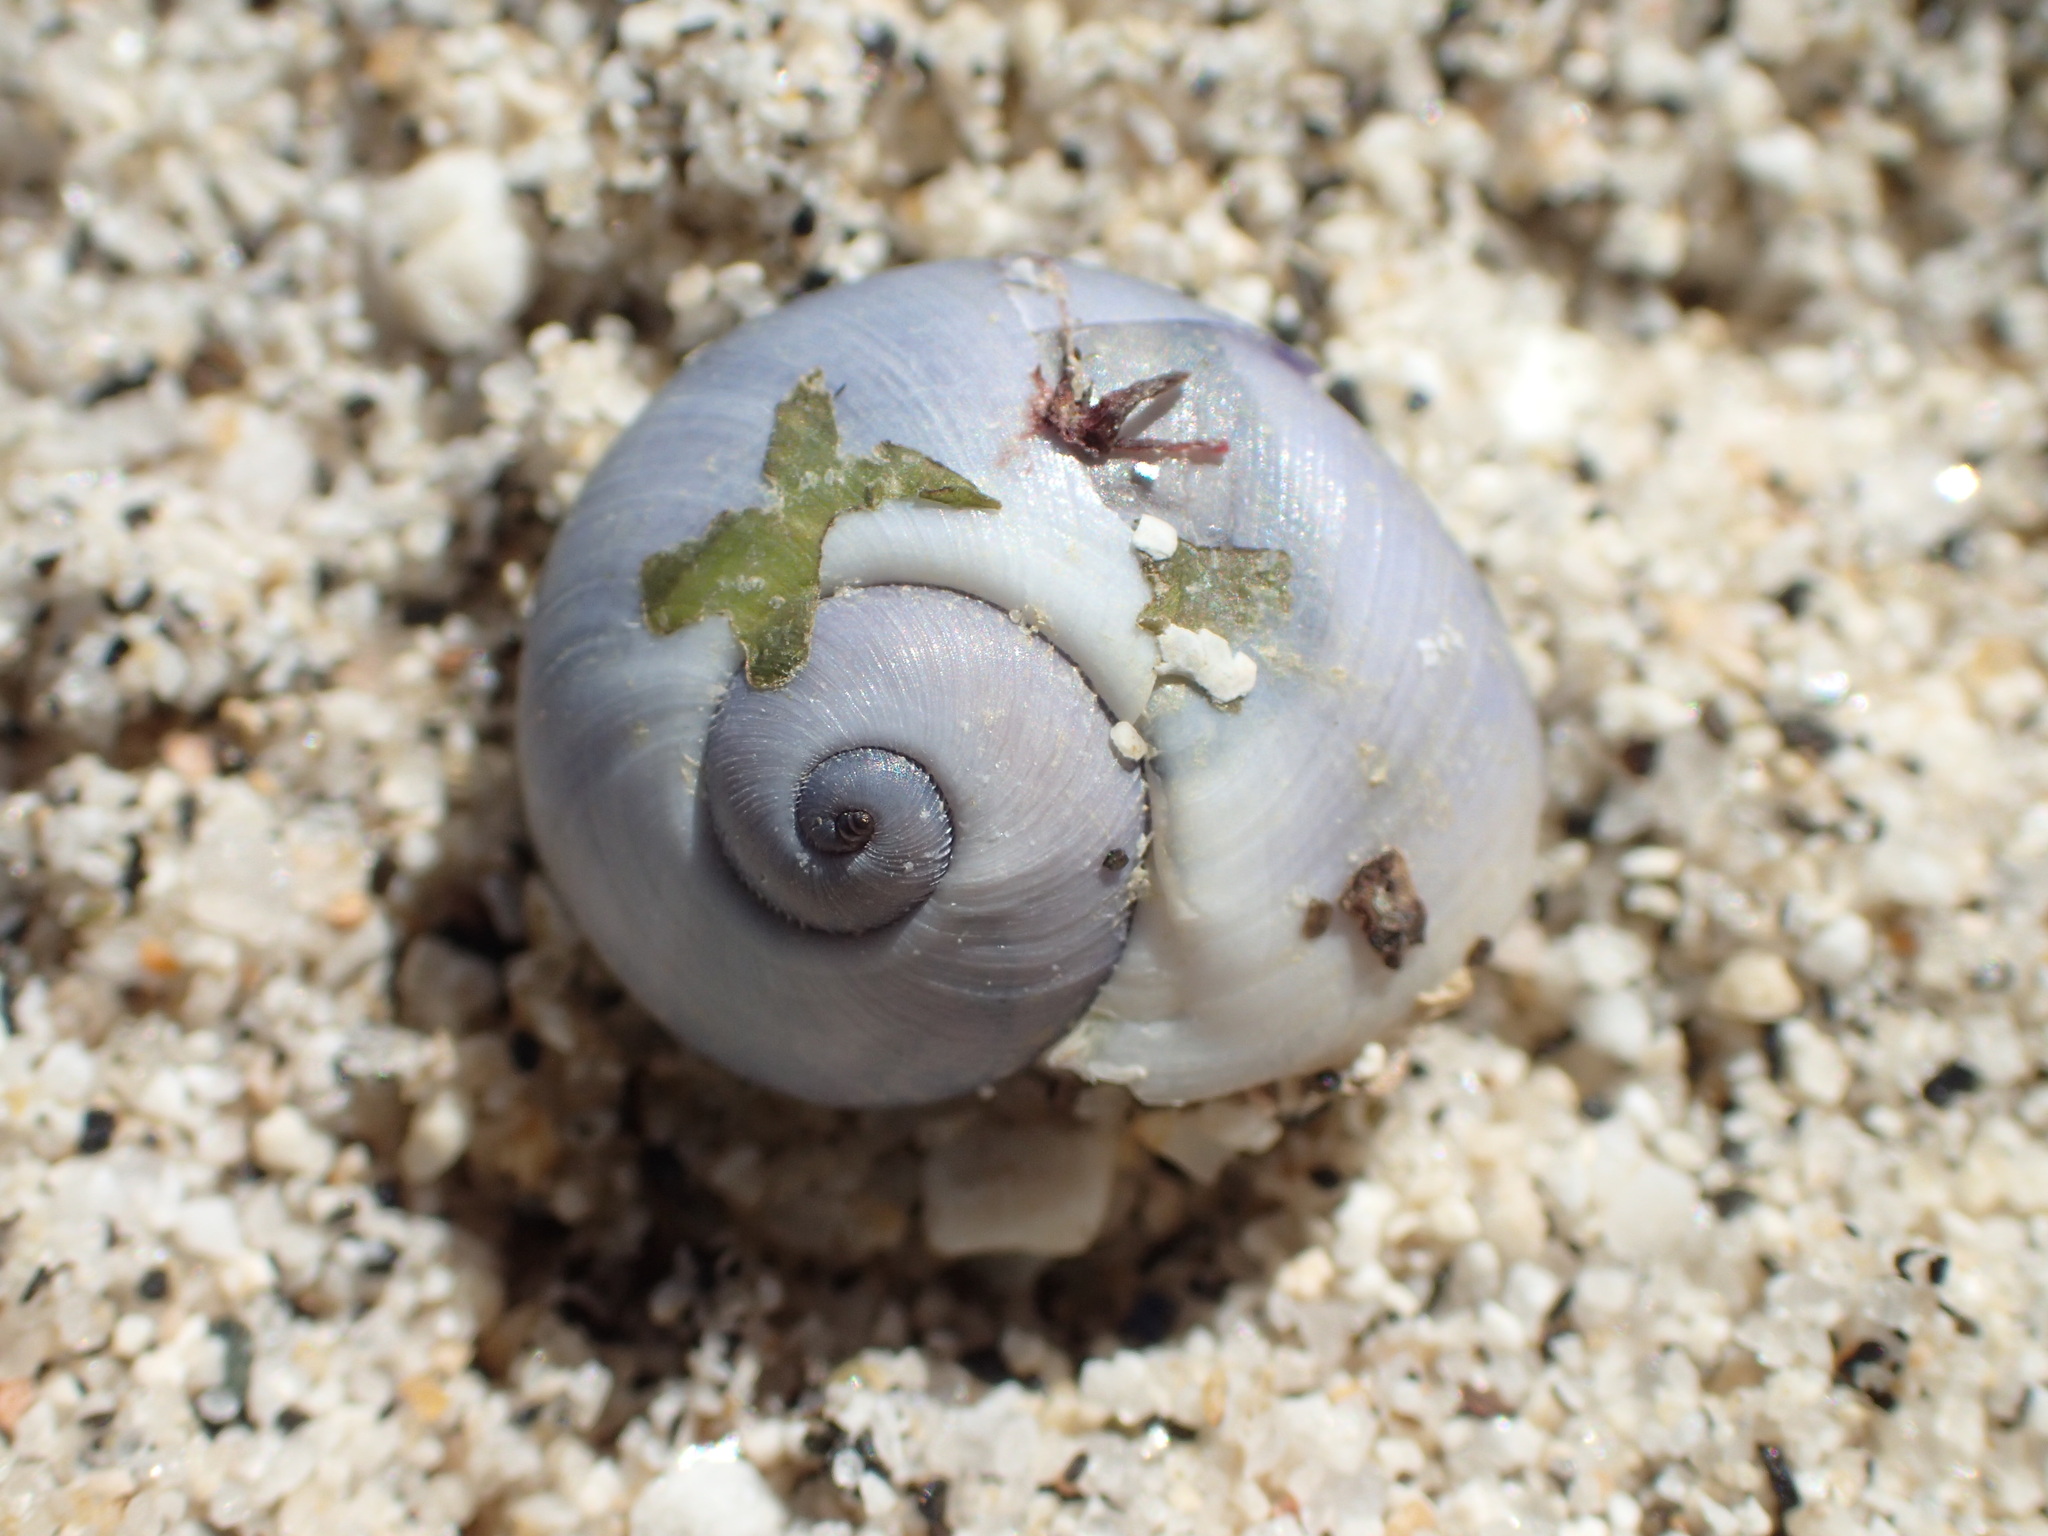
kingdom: Animalia
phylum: Mollusca
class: Gastropoda
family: Epitoniidae
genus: Janthina
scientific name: Janthina janthina
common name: Common janthina
